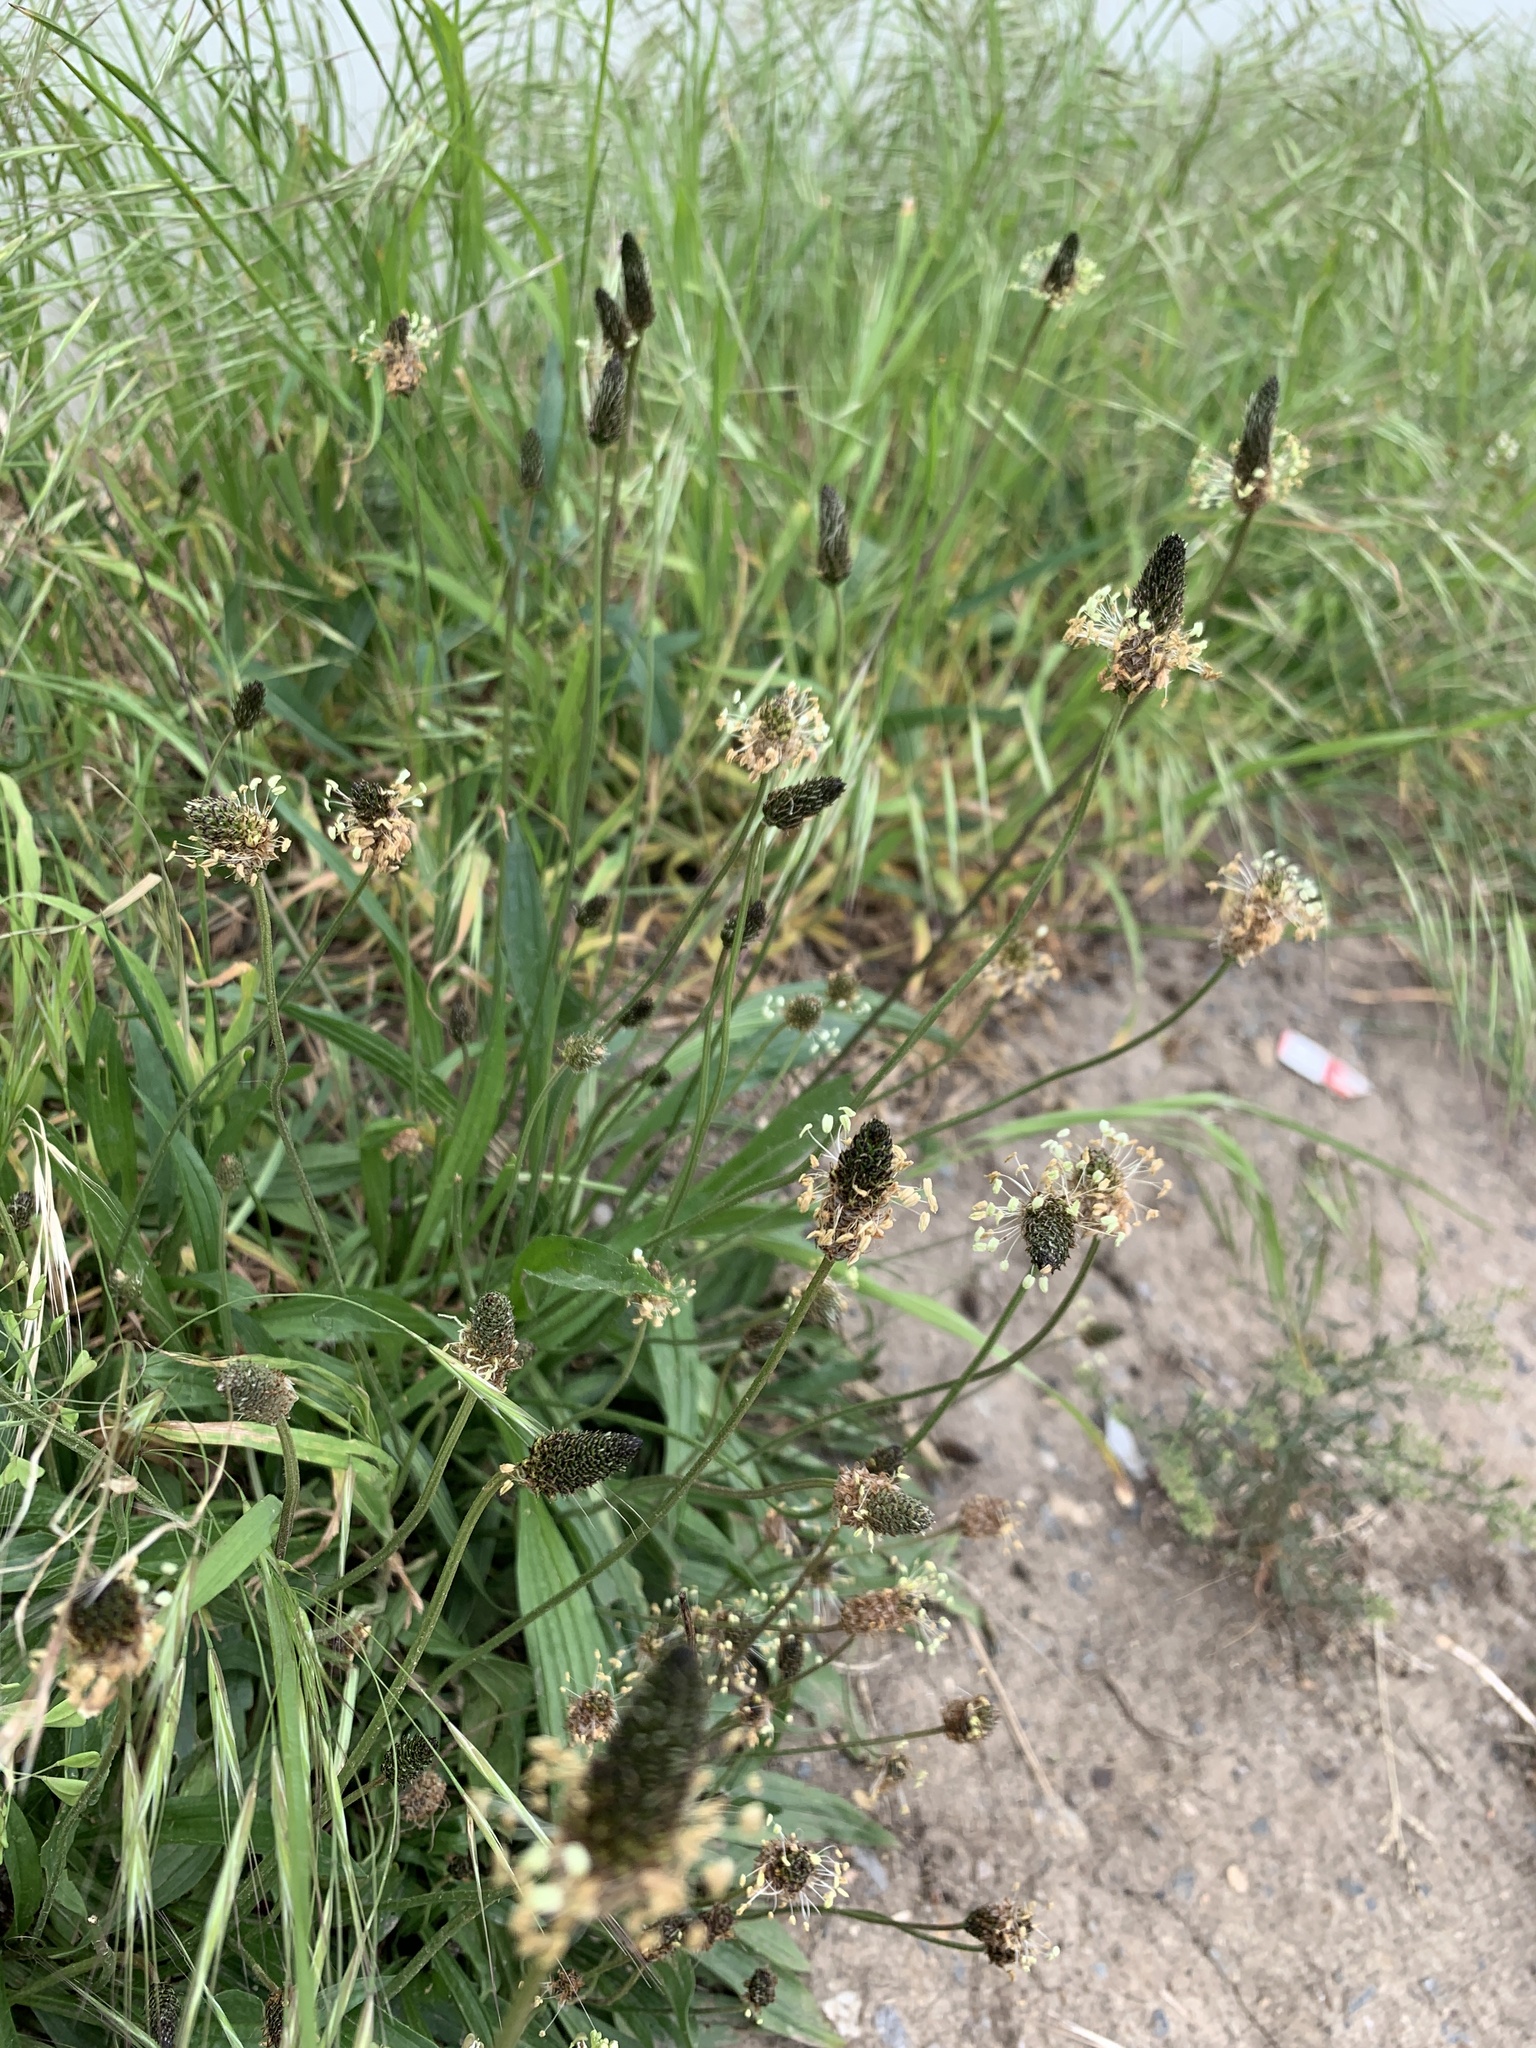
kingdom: Plantae
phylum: Tracheophyta
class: Magnoliopsida
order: Lamiales
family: Plantaginaceae
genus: Plantago
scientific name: Plantago lanceolata
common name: Ribwort plantain
